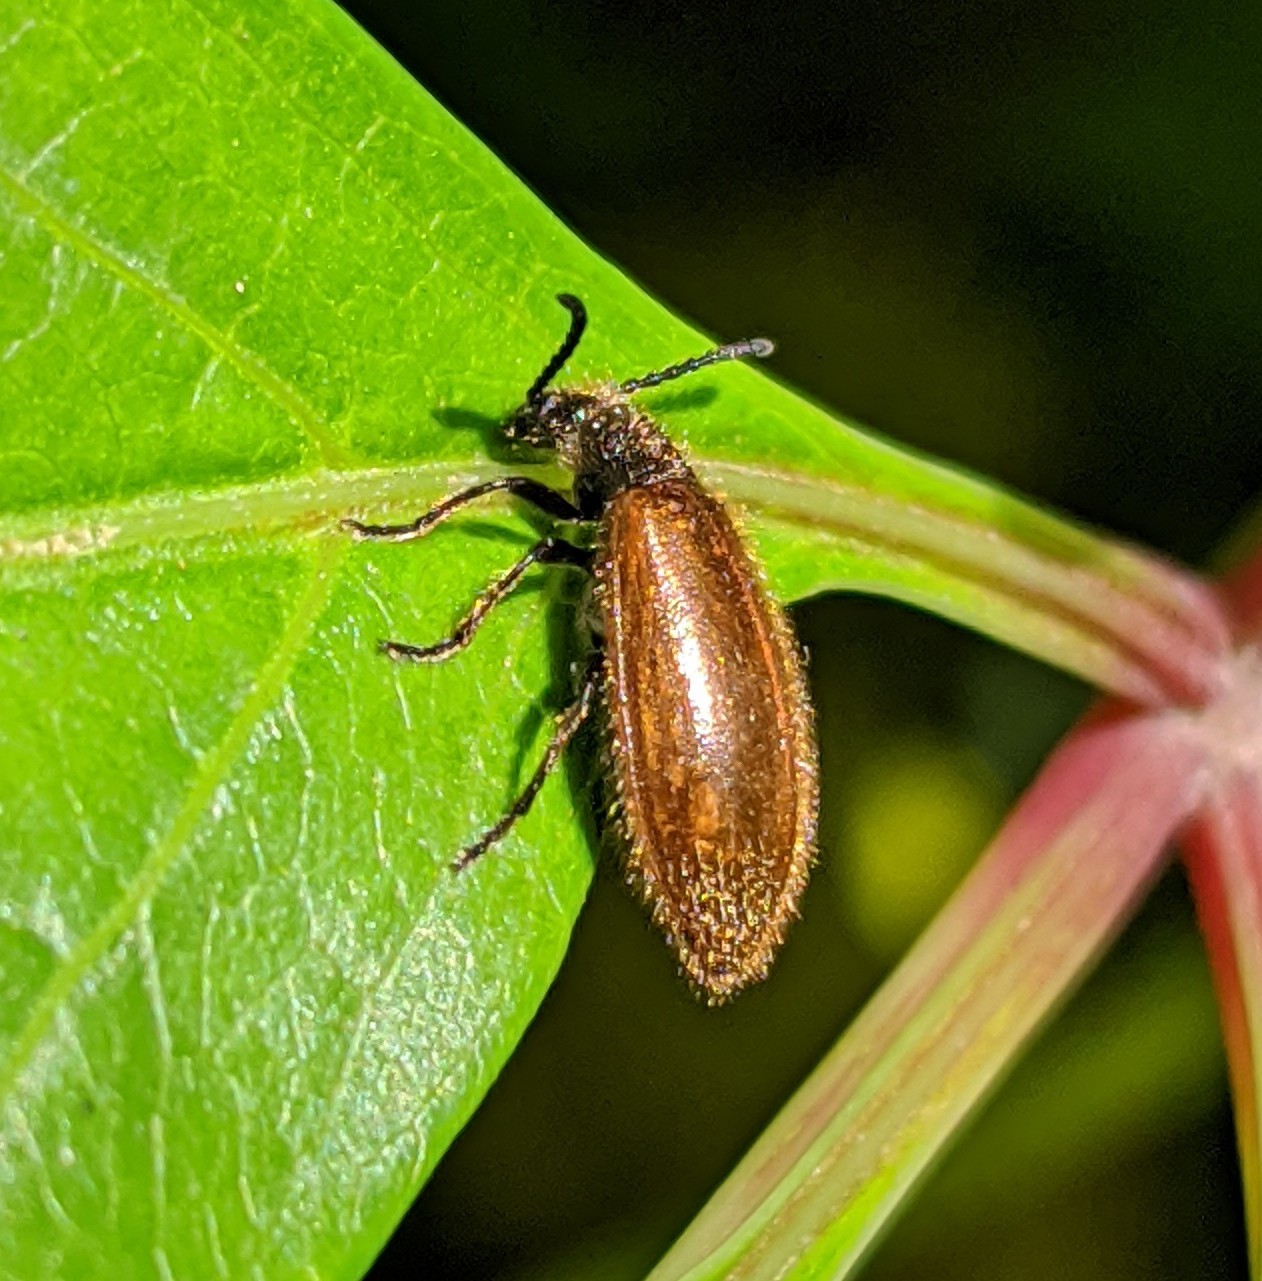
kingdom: Animalia
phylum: Arthropoda
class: Insecta
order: Coleoptera
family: Tenebrionidae
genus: Lagria
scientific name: Lagria hirta
